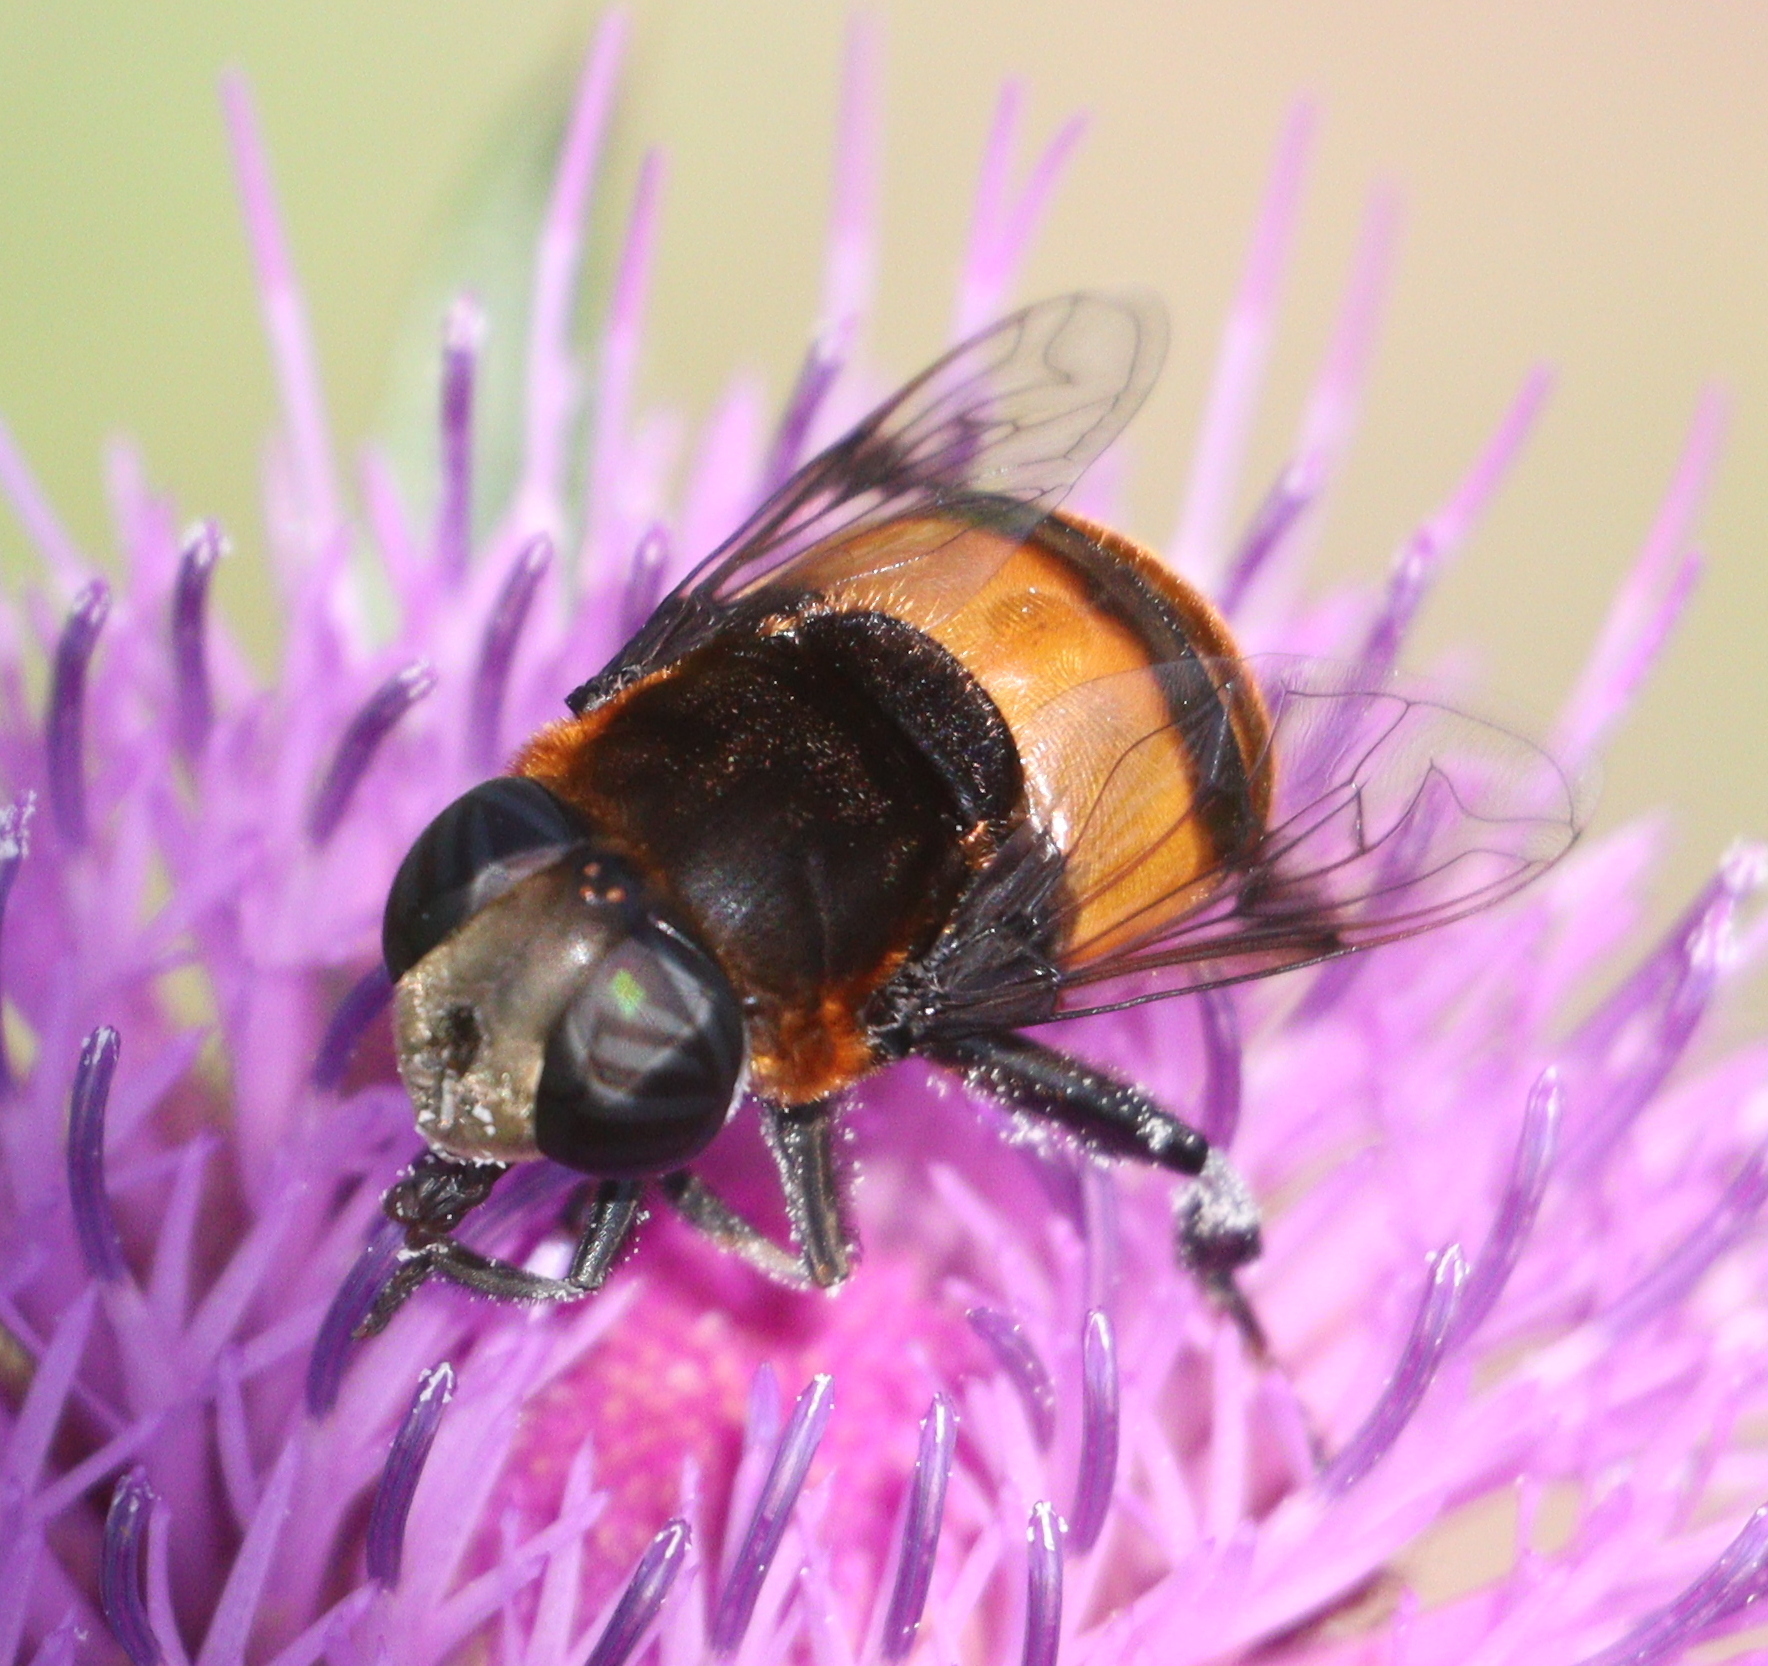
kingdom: Animalia
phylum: Arthropoda
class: Insecta
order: Diptera
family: Syrphidae
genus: Phytomia
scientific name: Phytomia zonata
